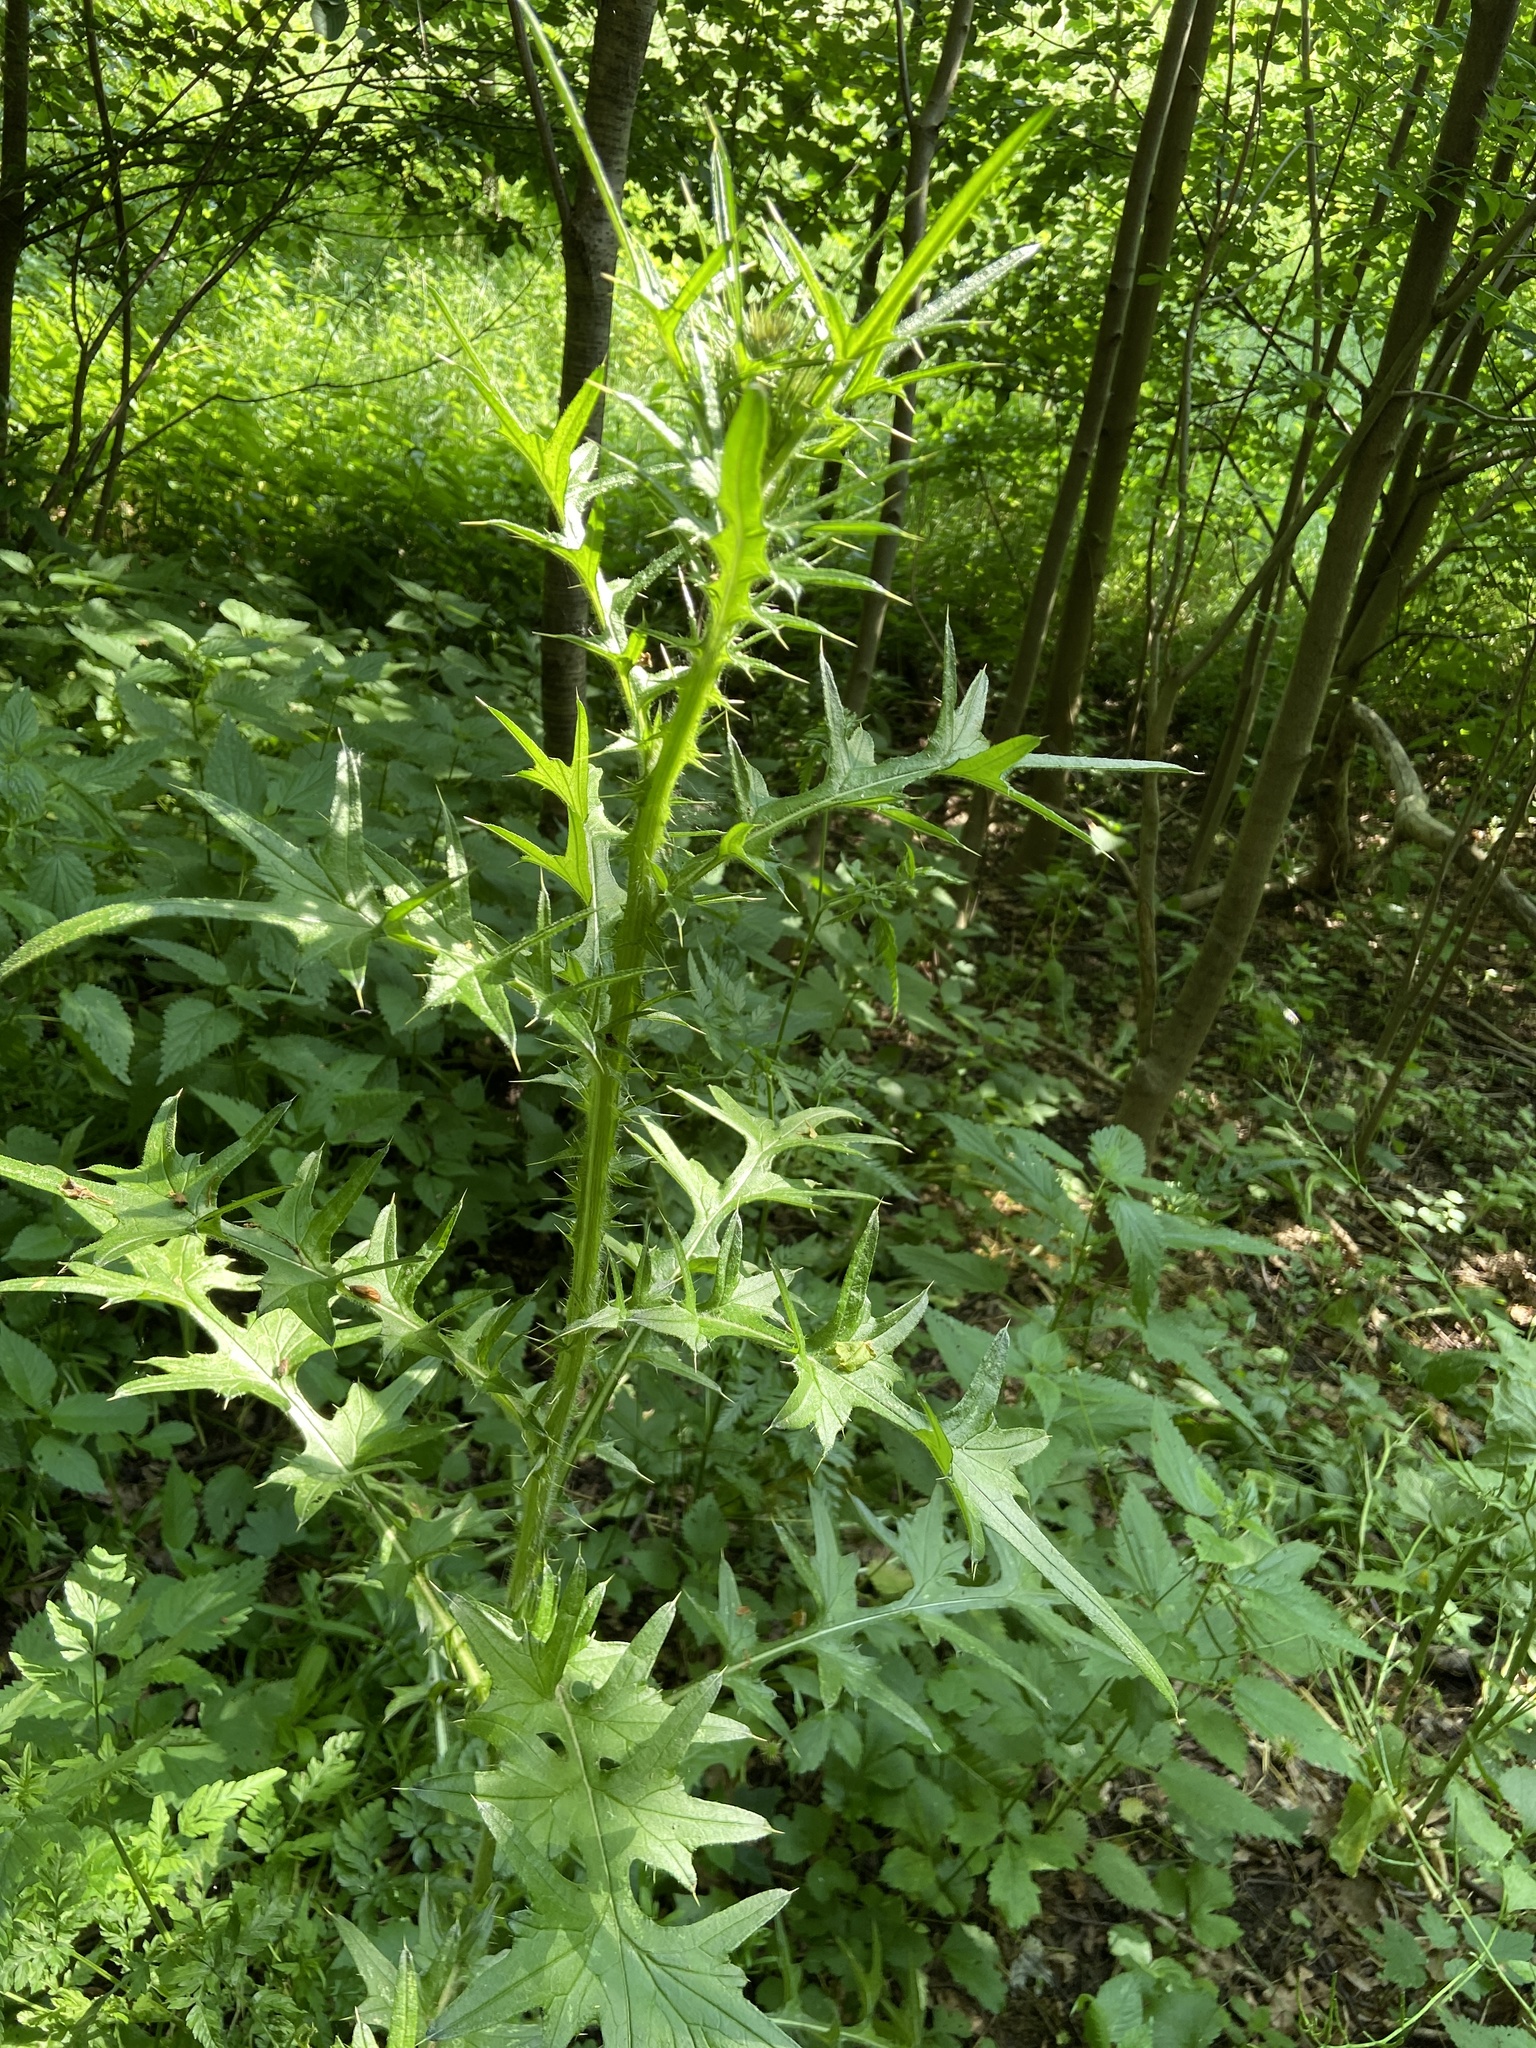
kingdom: Plantae
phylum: Tracheophyta
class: Magnoliopsida
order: Asterales
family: Asteraceae
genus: Cirsium
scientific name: Cirsium vulgare
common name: Bull thistle
